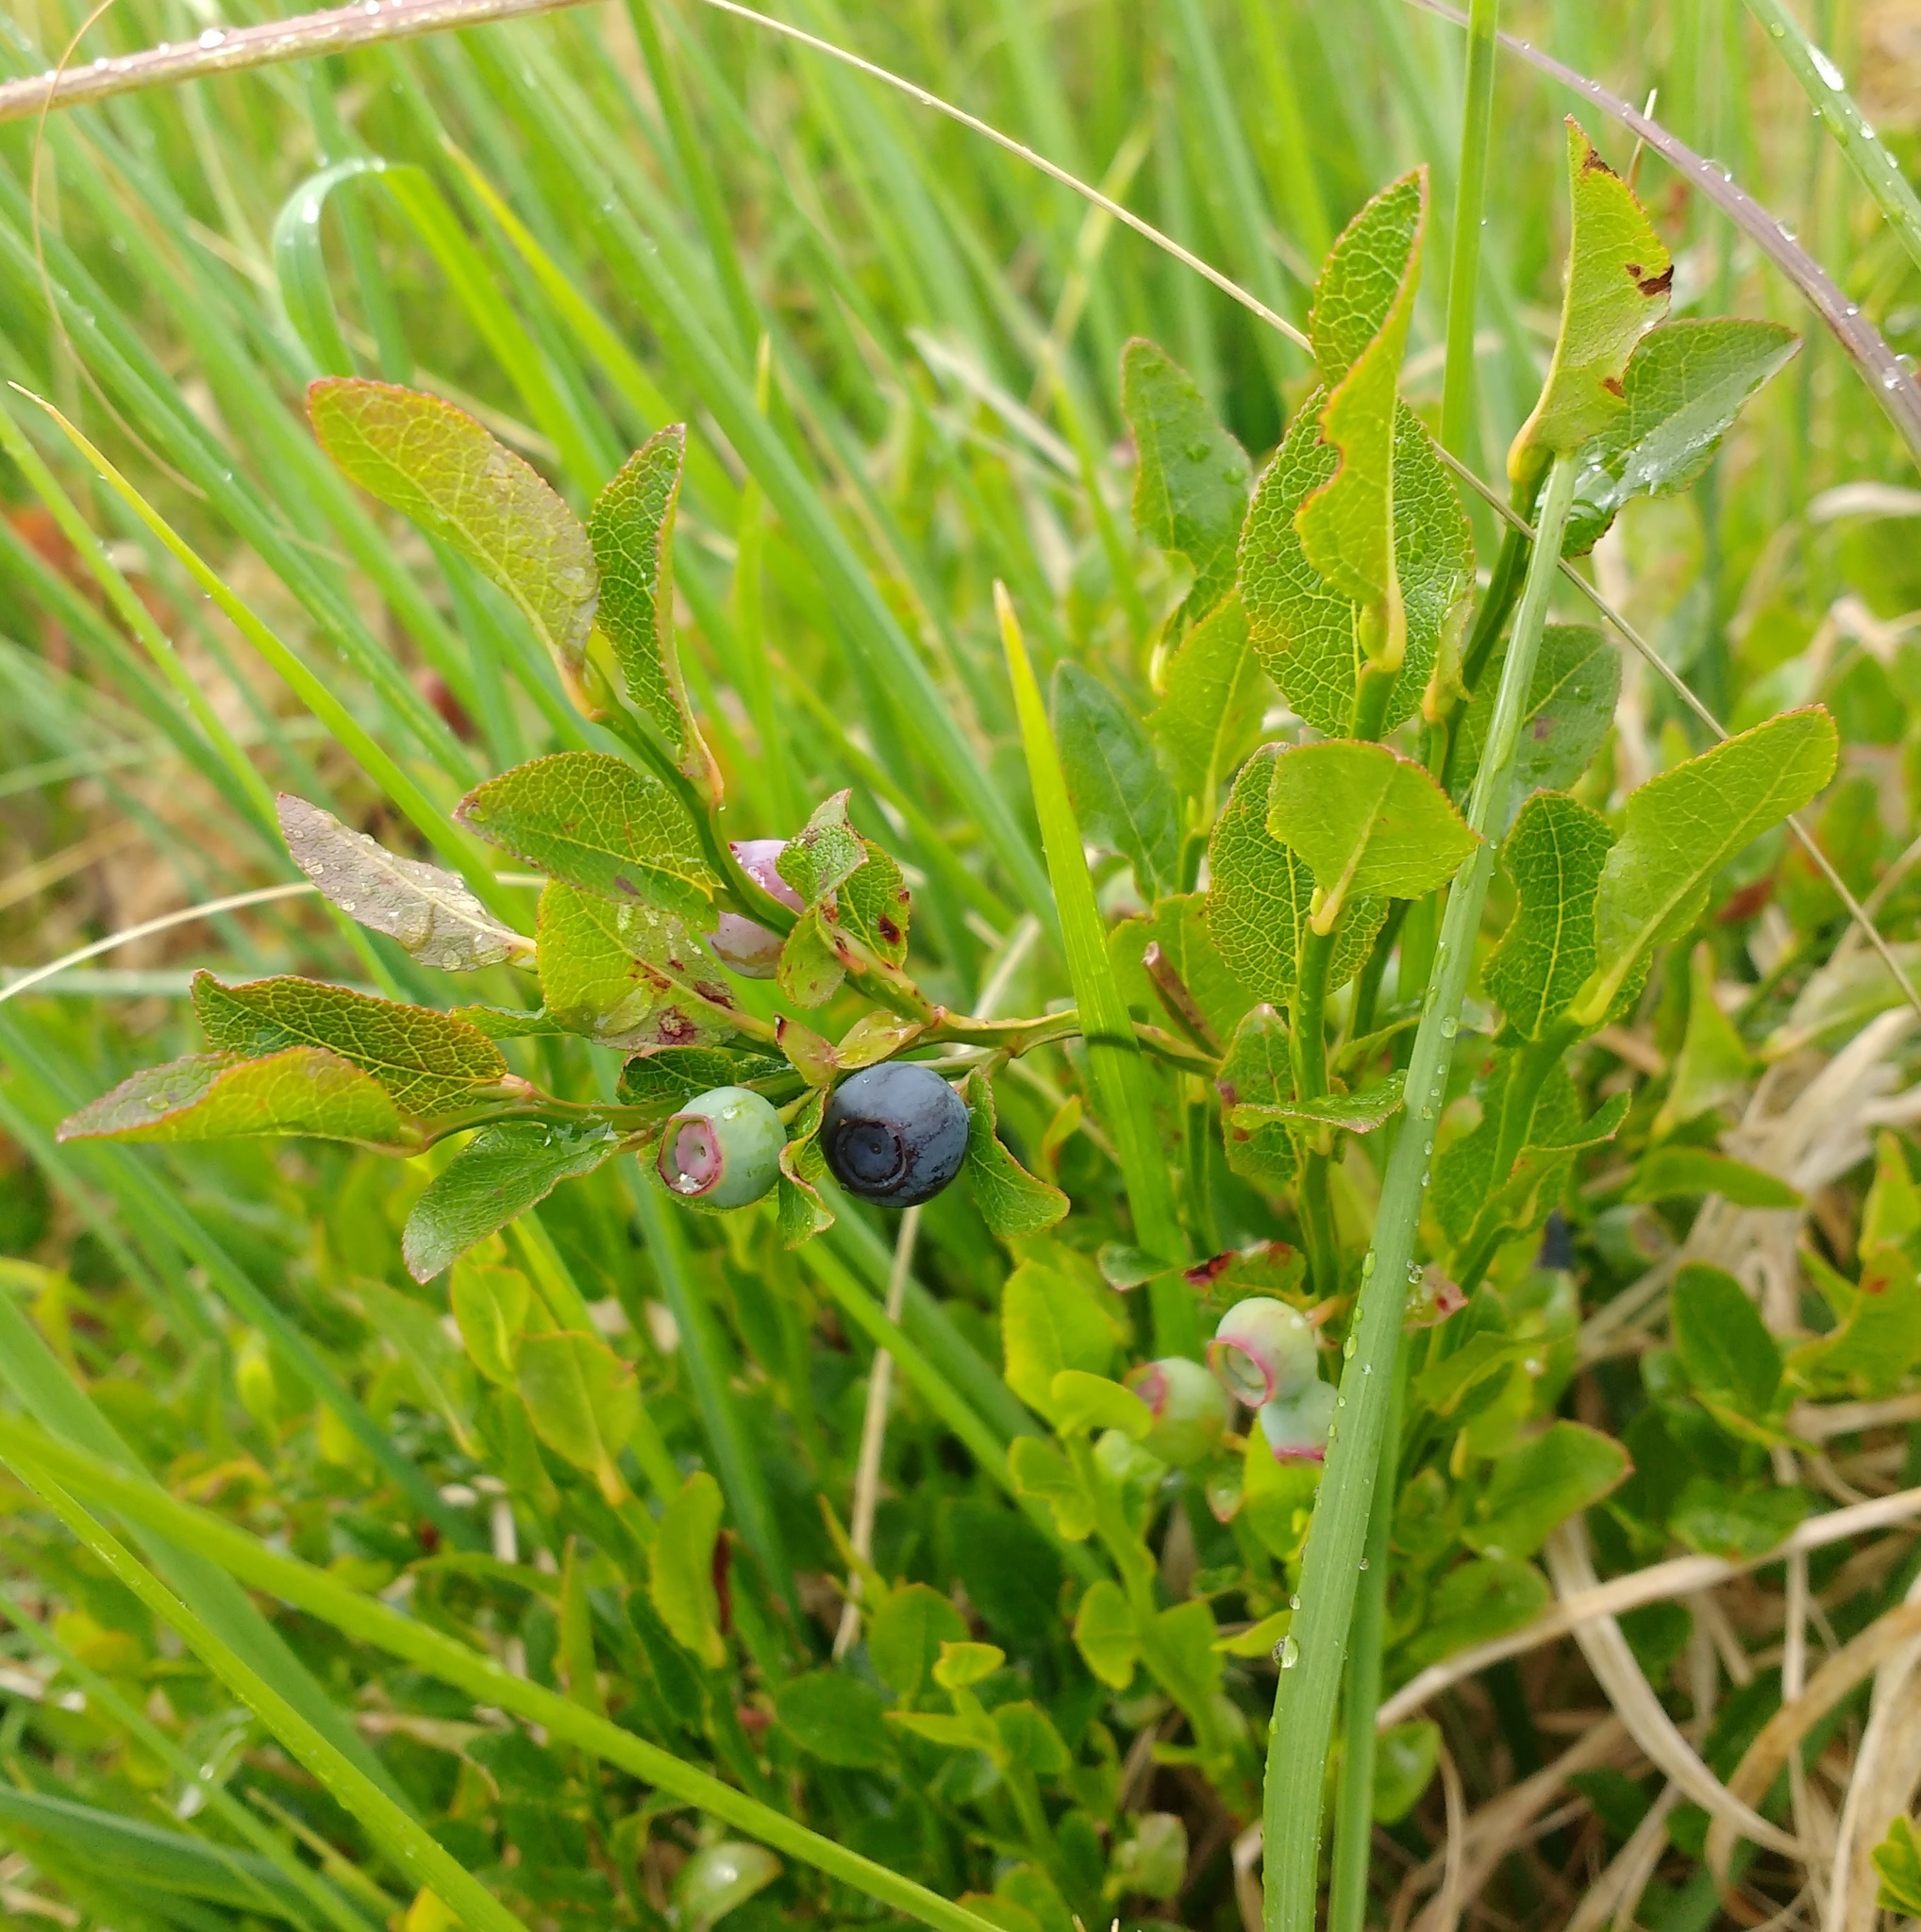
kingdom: Plantae
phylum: Tracheophyta
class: Magnoliopsida
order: Ericales
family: Ericaceae
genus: Vaccinium
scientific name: Vaccinium myrtillus
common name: Bilberry
